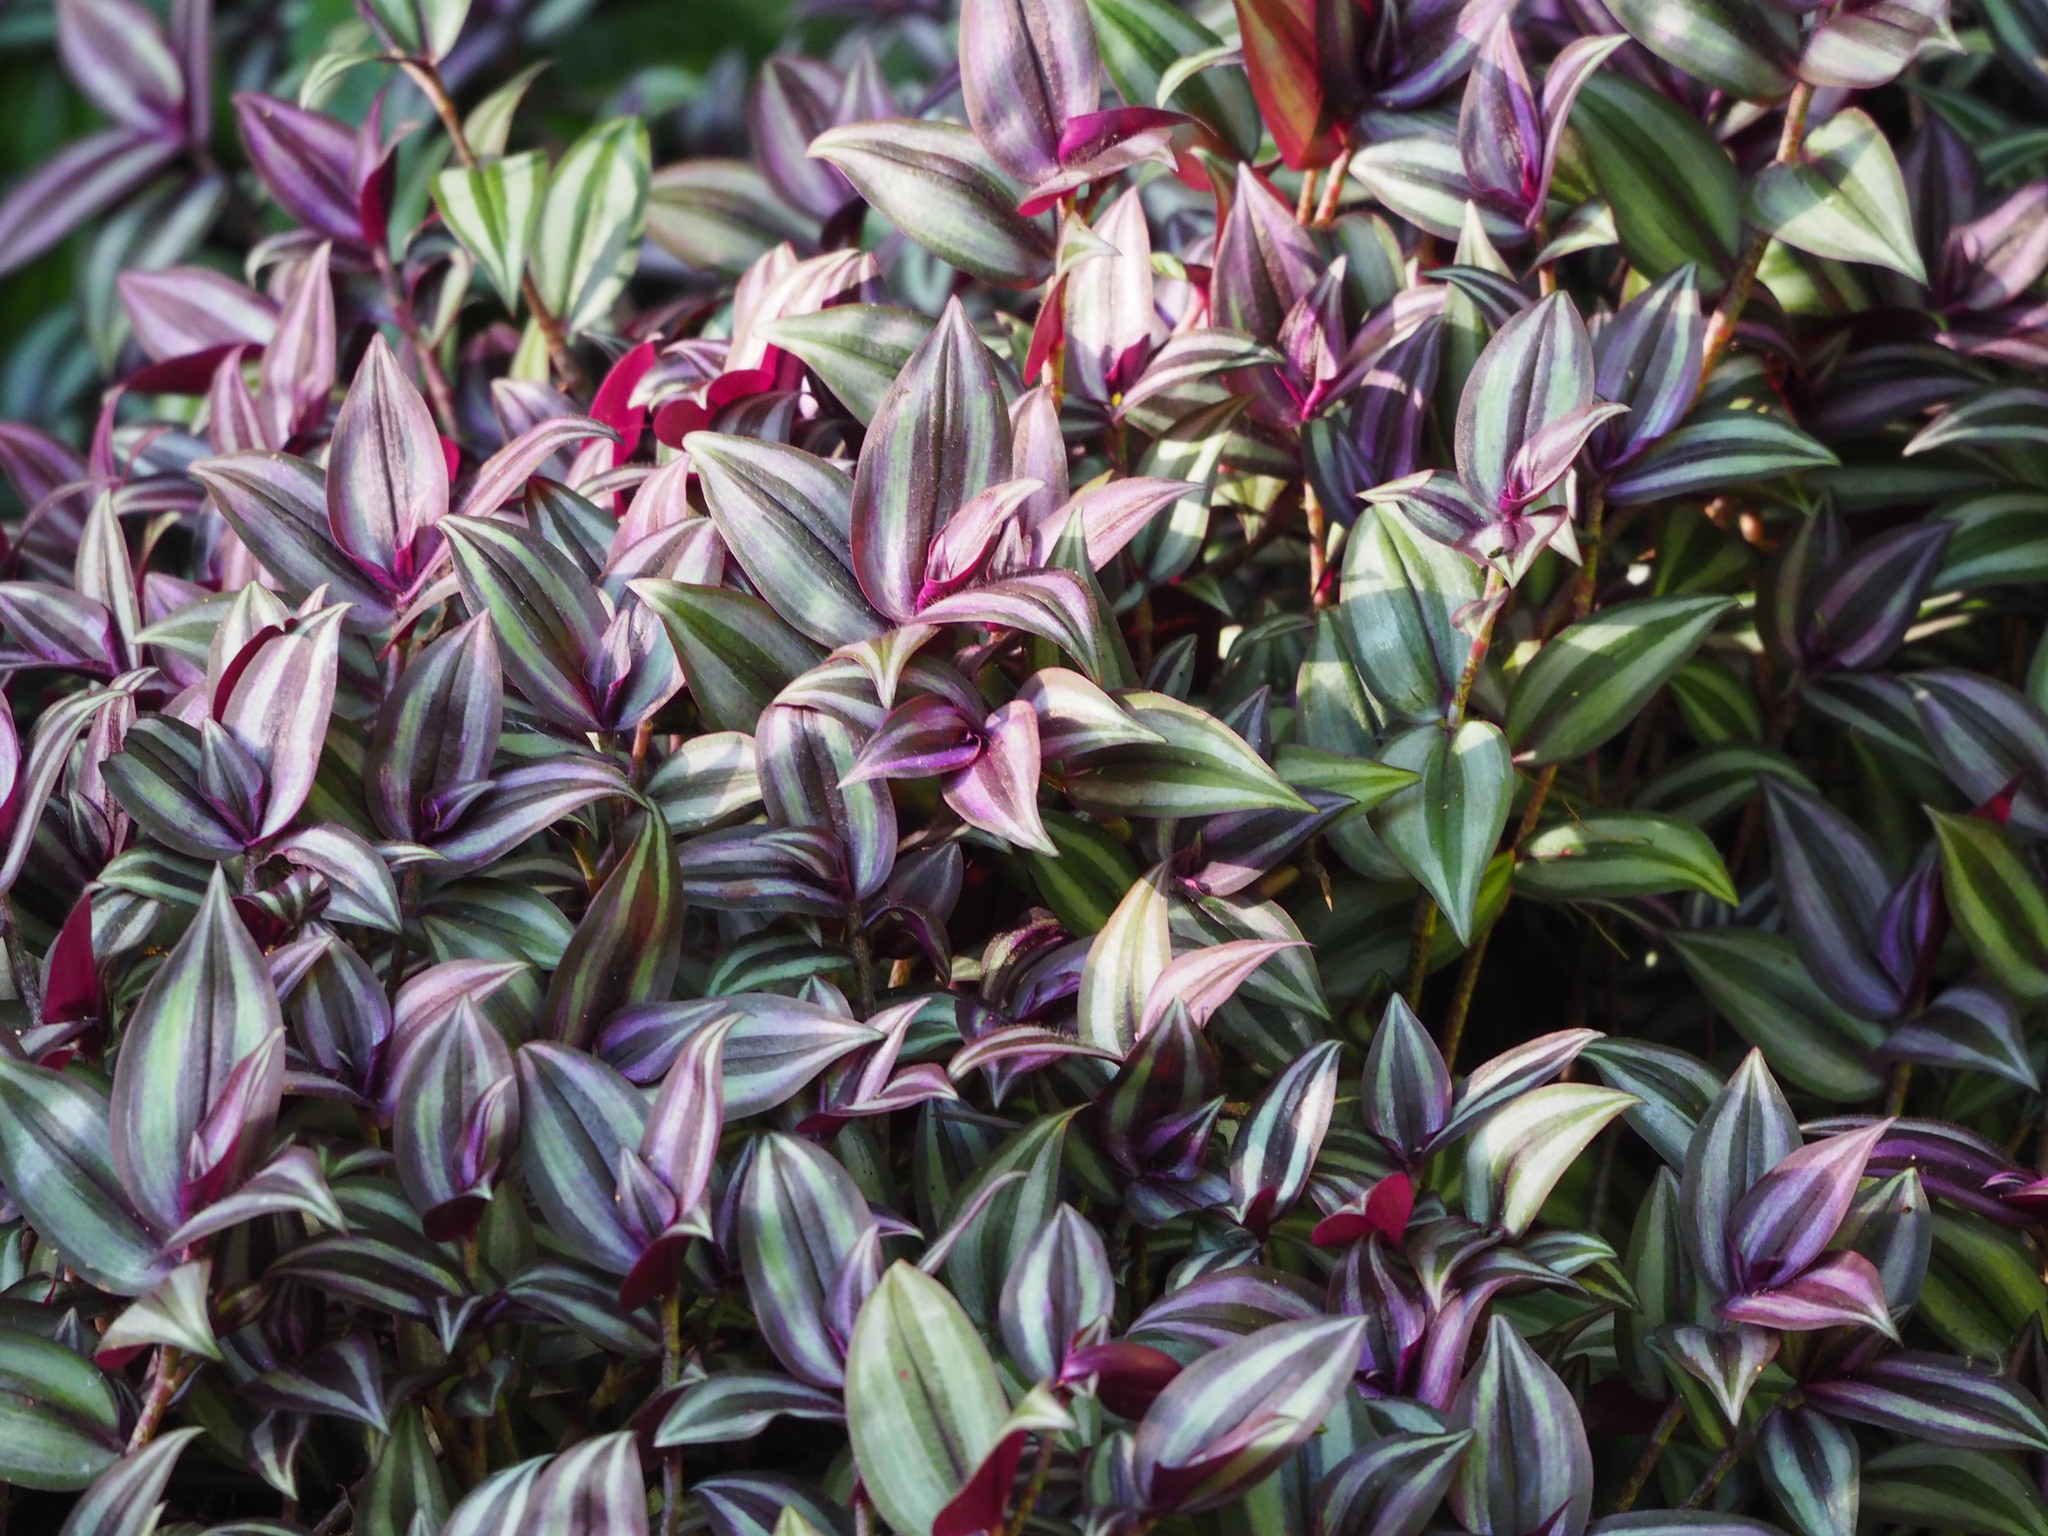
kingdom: Plantae
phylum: Tracheophyta
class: Liliopsida
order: Commelinales
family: Commelinaceae
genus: Tradescantia
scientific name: Tradescantia zebrina
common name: Inchplant
